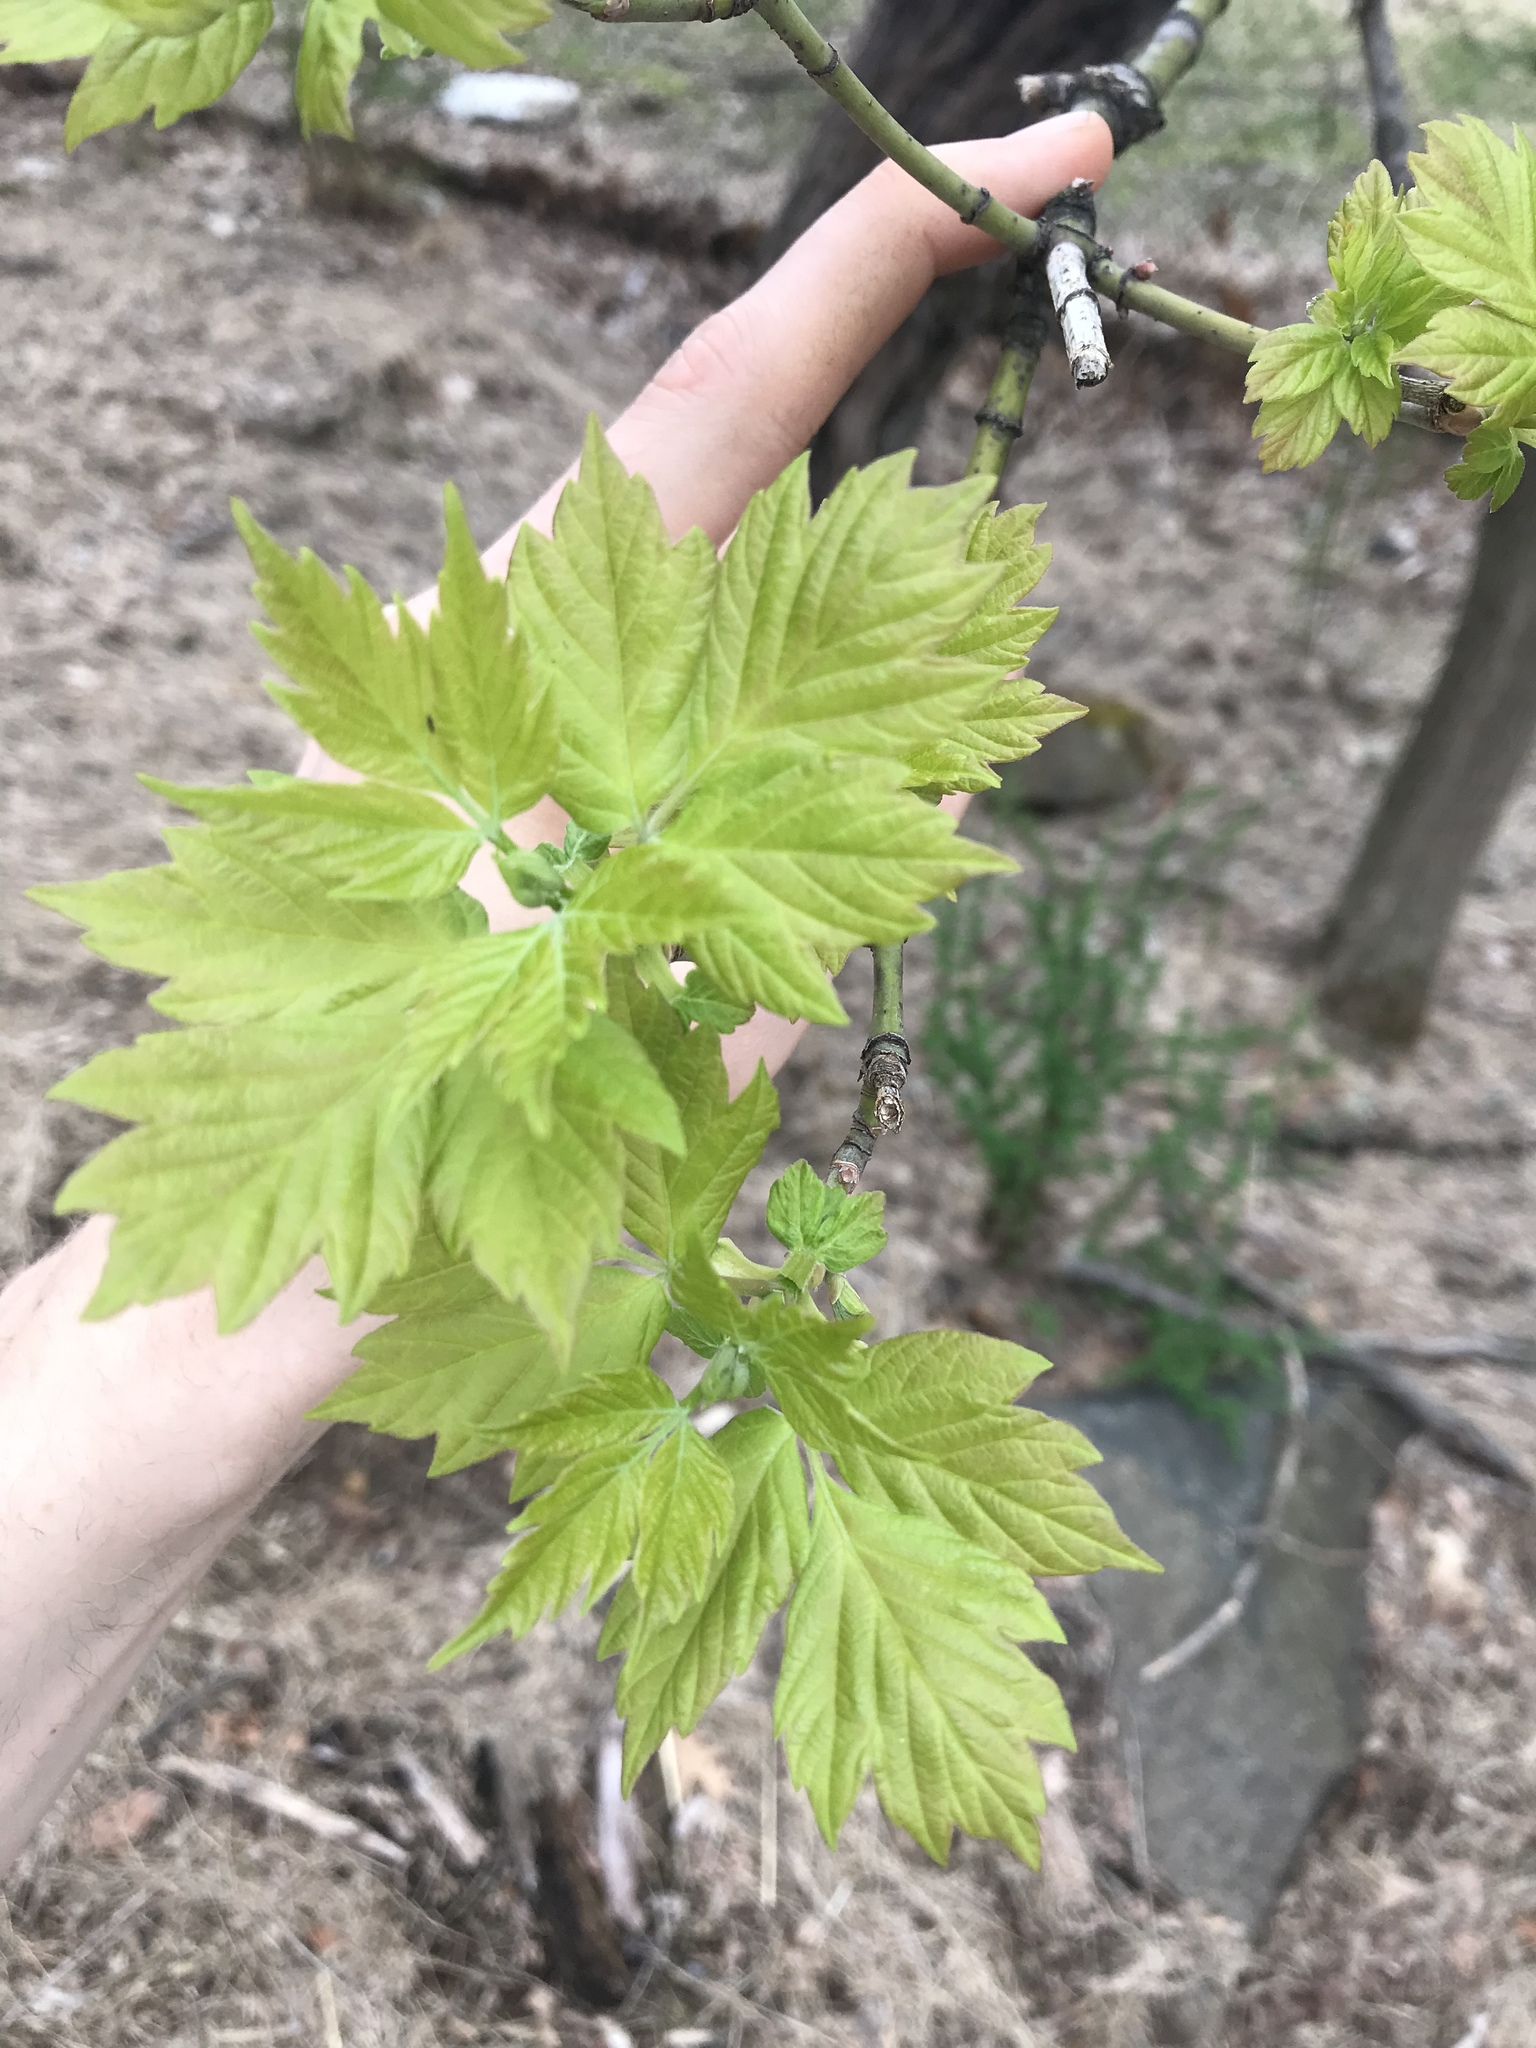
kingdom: Plantae
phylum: Tracheophyta
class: Magnoliopsida
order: Sapindales
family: Sapindaceae
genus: Acer
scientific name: Acer negundo
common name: Ashleaf maple
